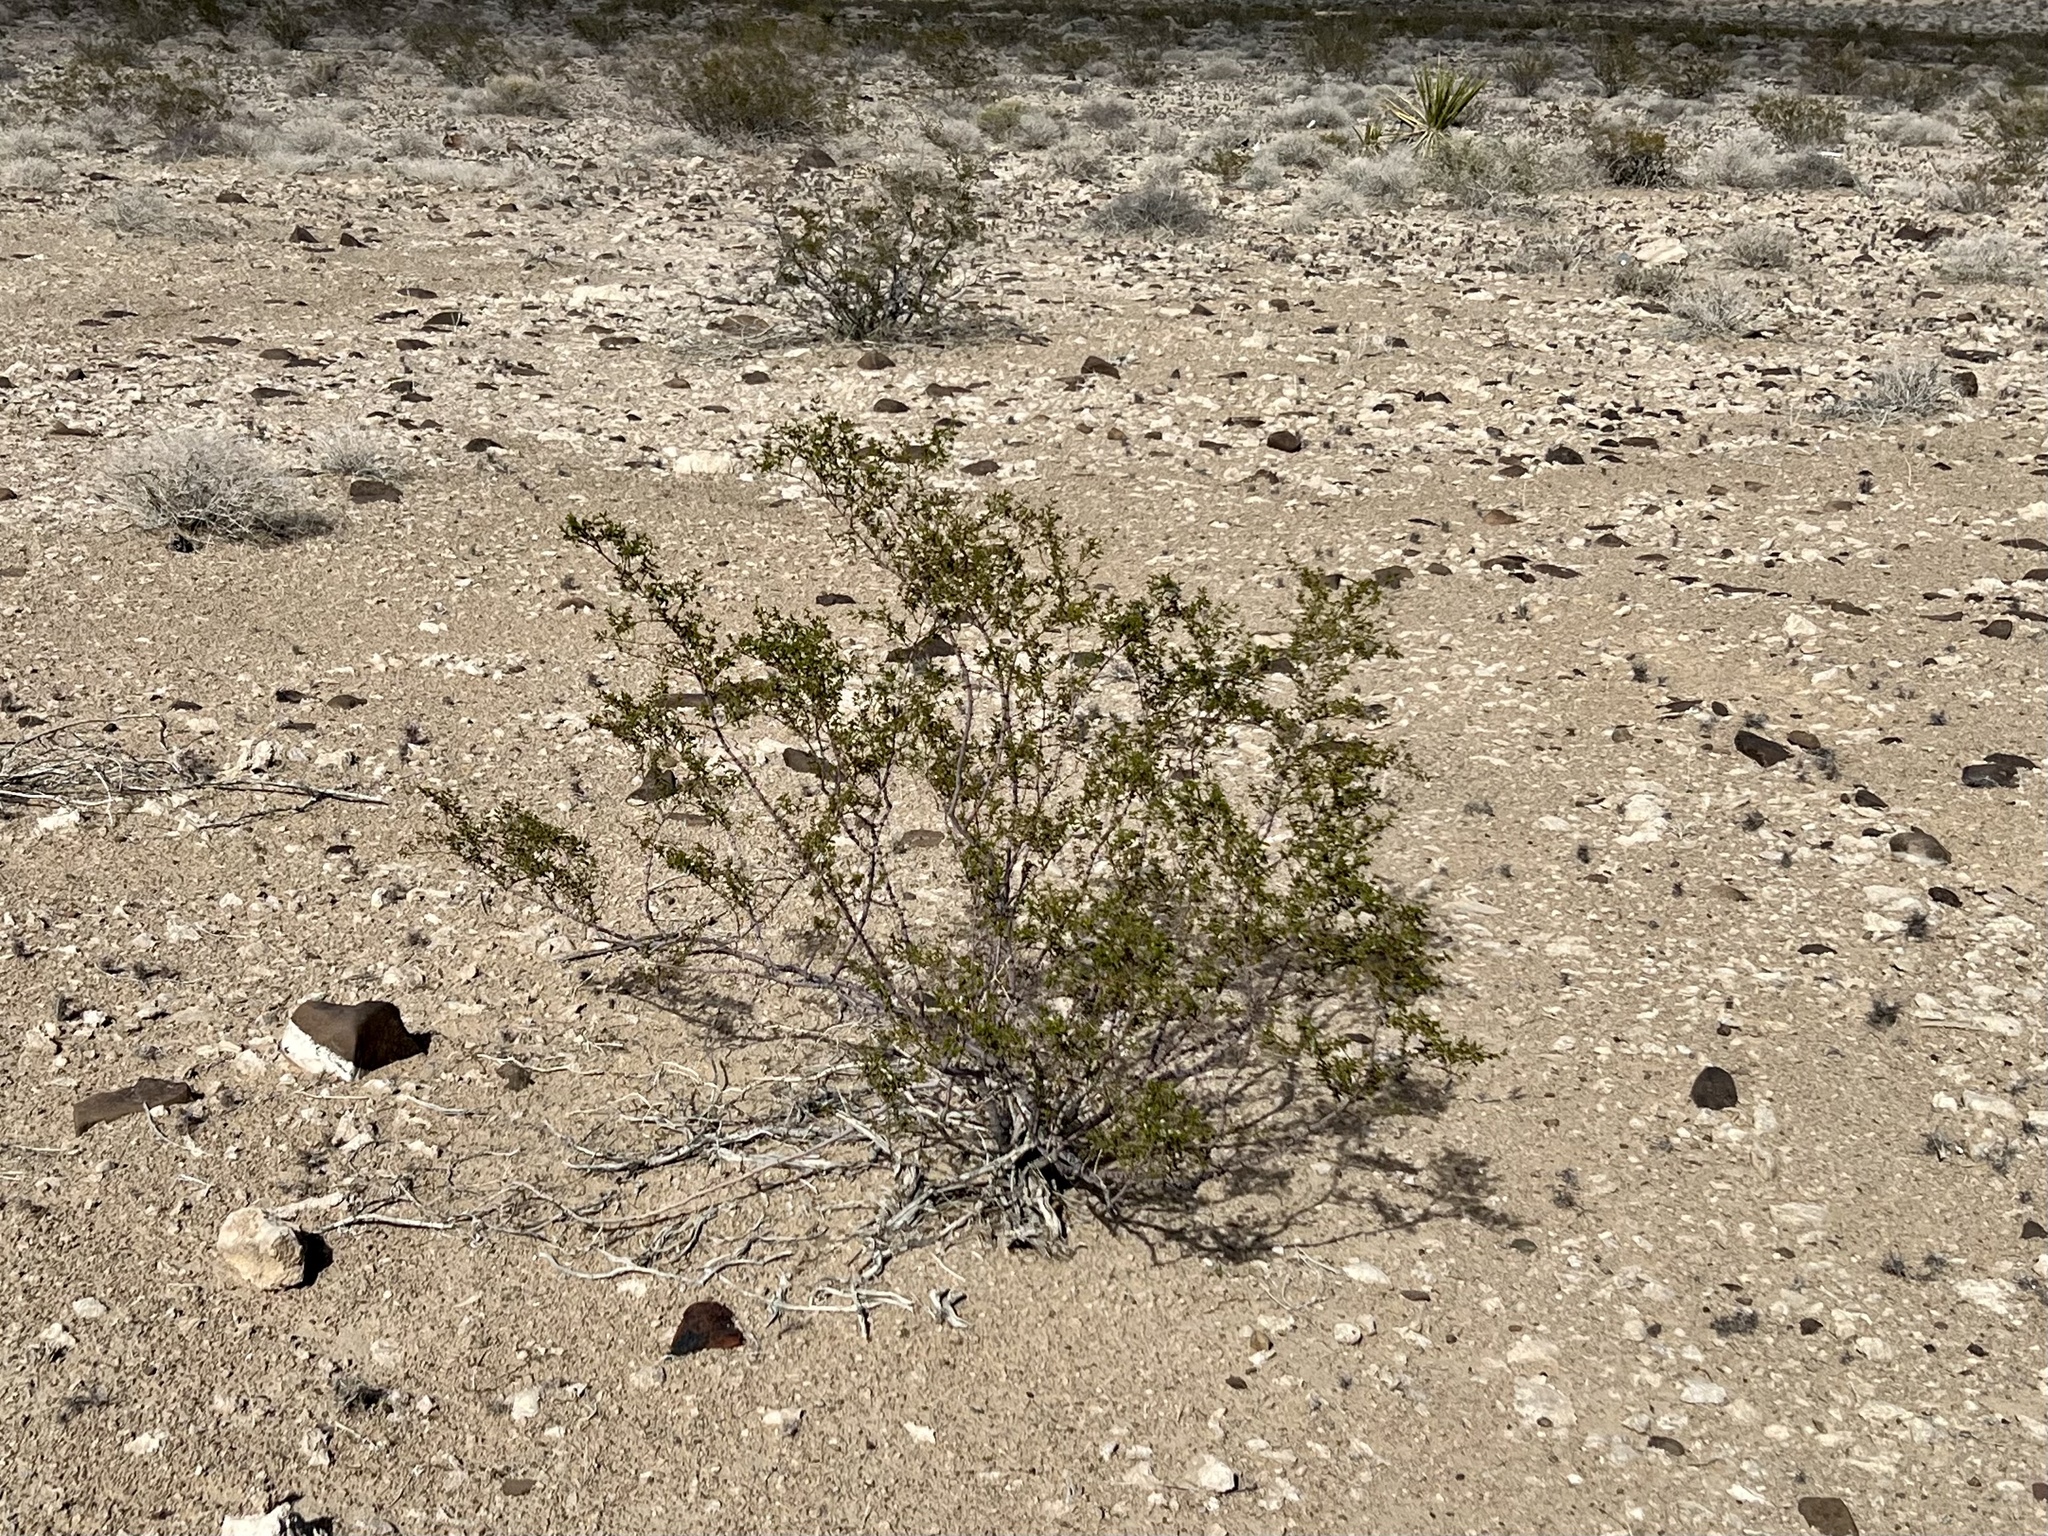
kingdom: Plantae
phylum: Tracheophyta
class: Magnoliopsida
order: Zygophyllales
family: Zygophyllaceae
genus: Larrea
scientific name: Larrea tridentata
